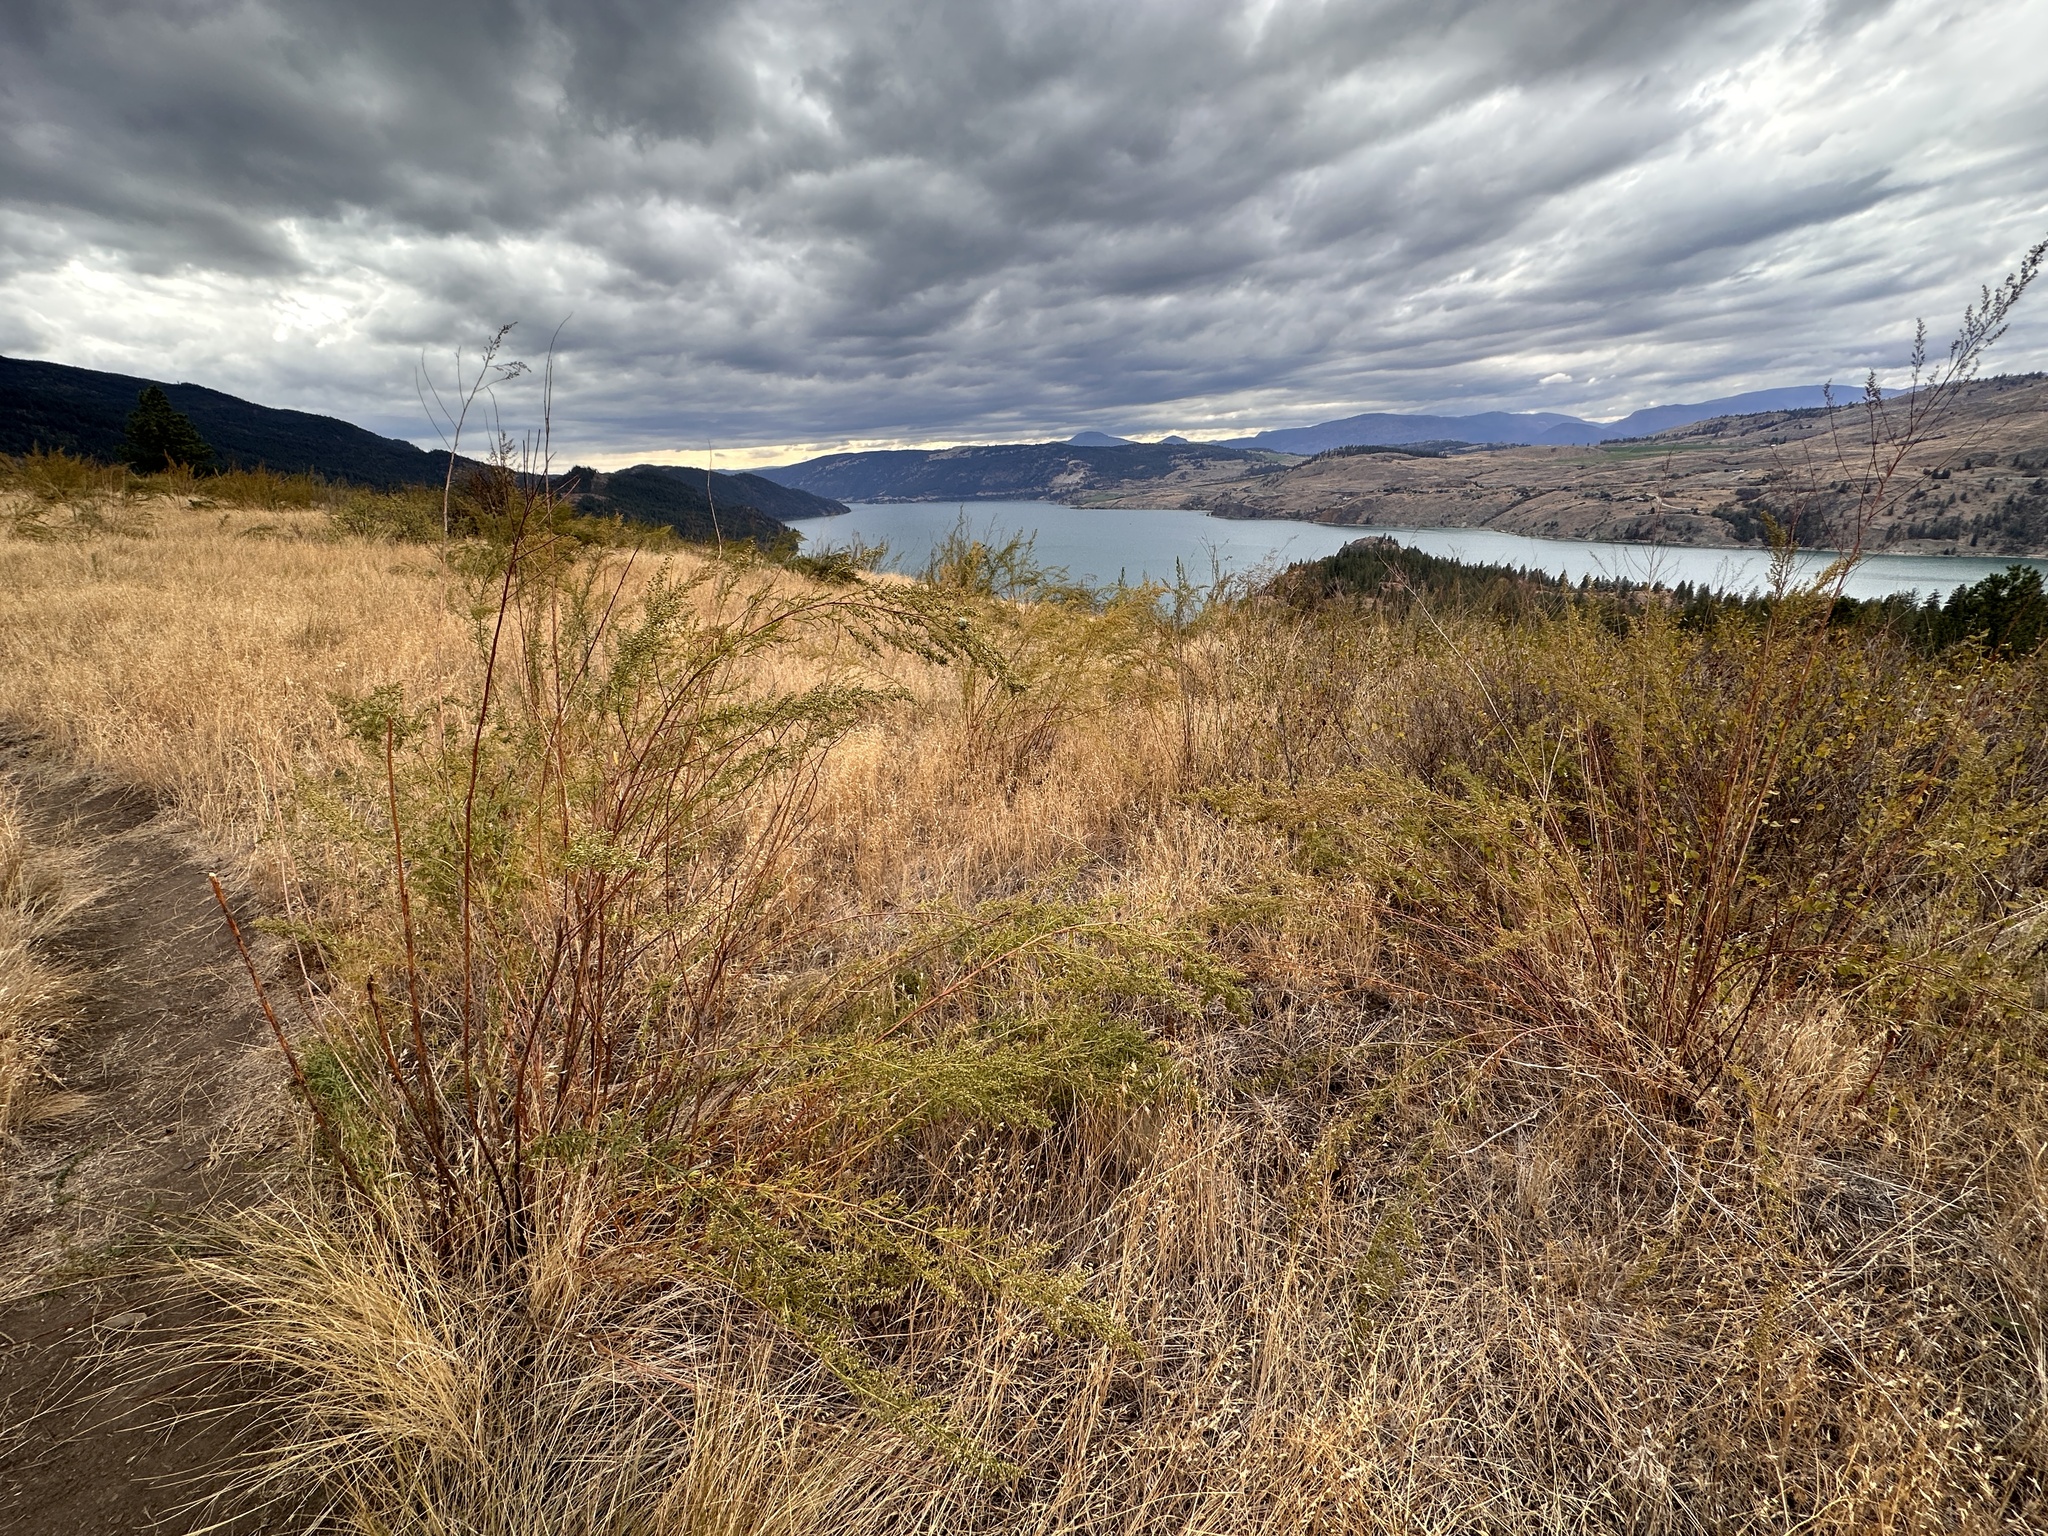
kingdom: Plantae
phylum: Tracheophyta
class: Magnoliopsida
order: Asterales
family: Asteraceae
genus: Artemisia
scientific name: Artemisia dracunculus
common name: Tarragon
